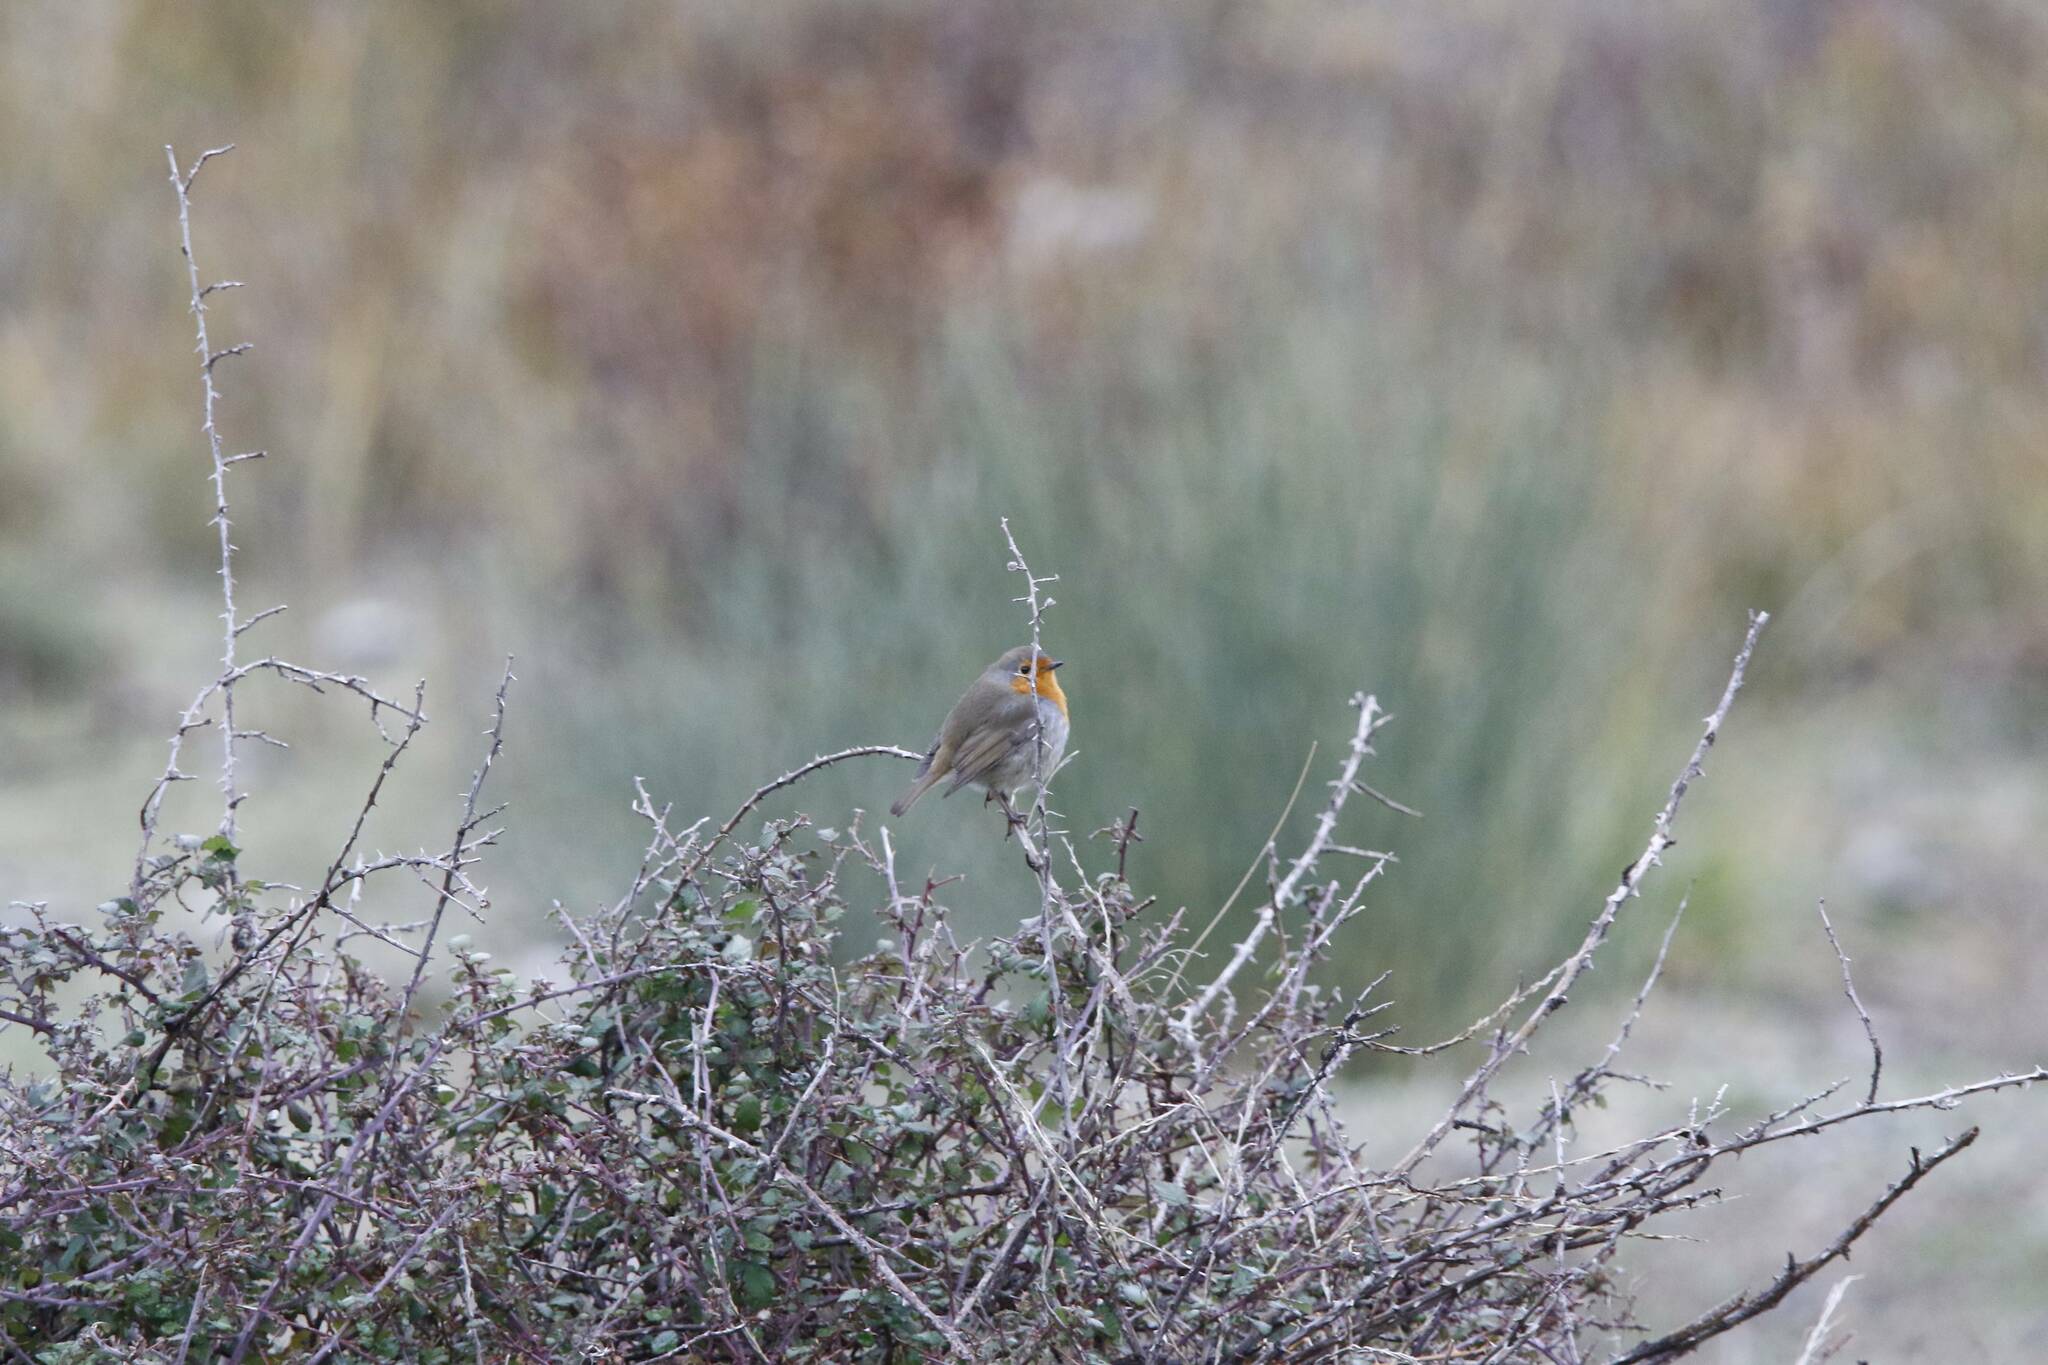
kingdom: Animalia
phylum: Chordata
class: Aves
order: Passeriformes
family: Muscicapidae
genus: Erithacus
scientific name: Erithacus rubecula
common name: European robin
